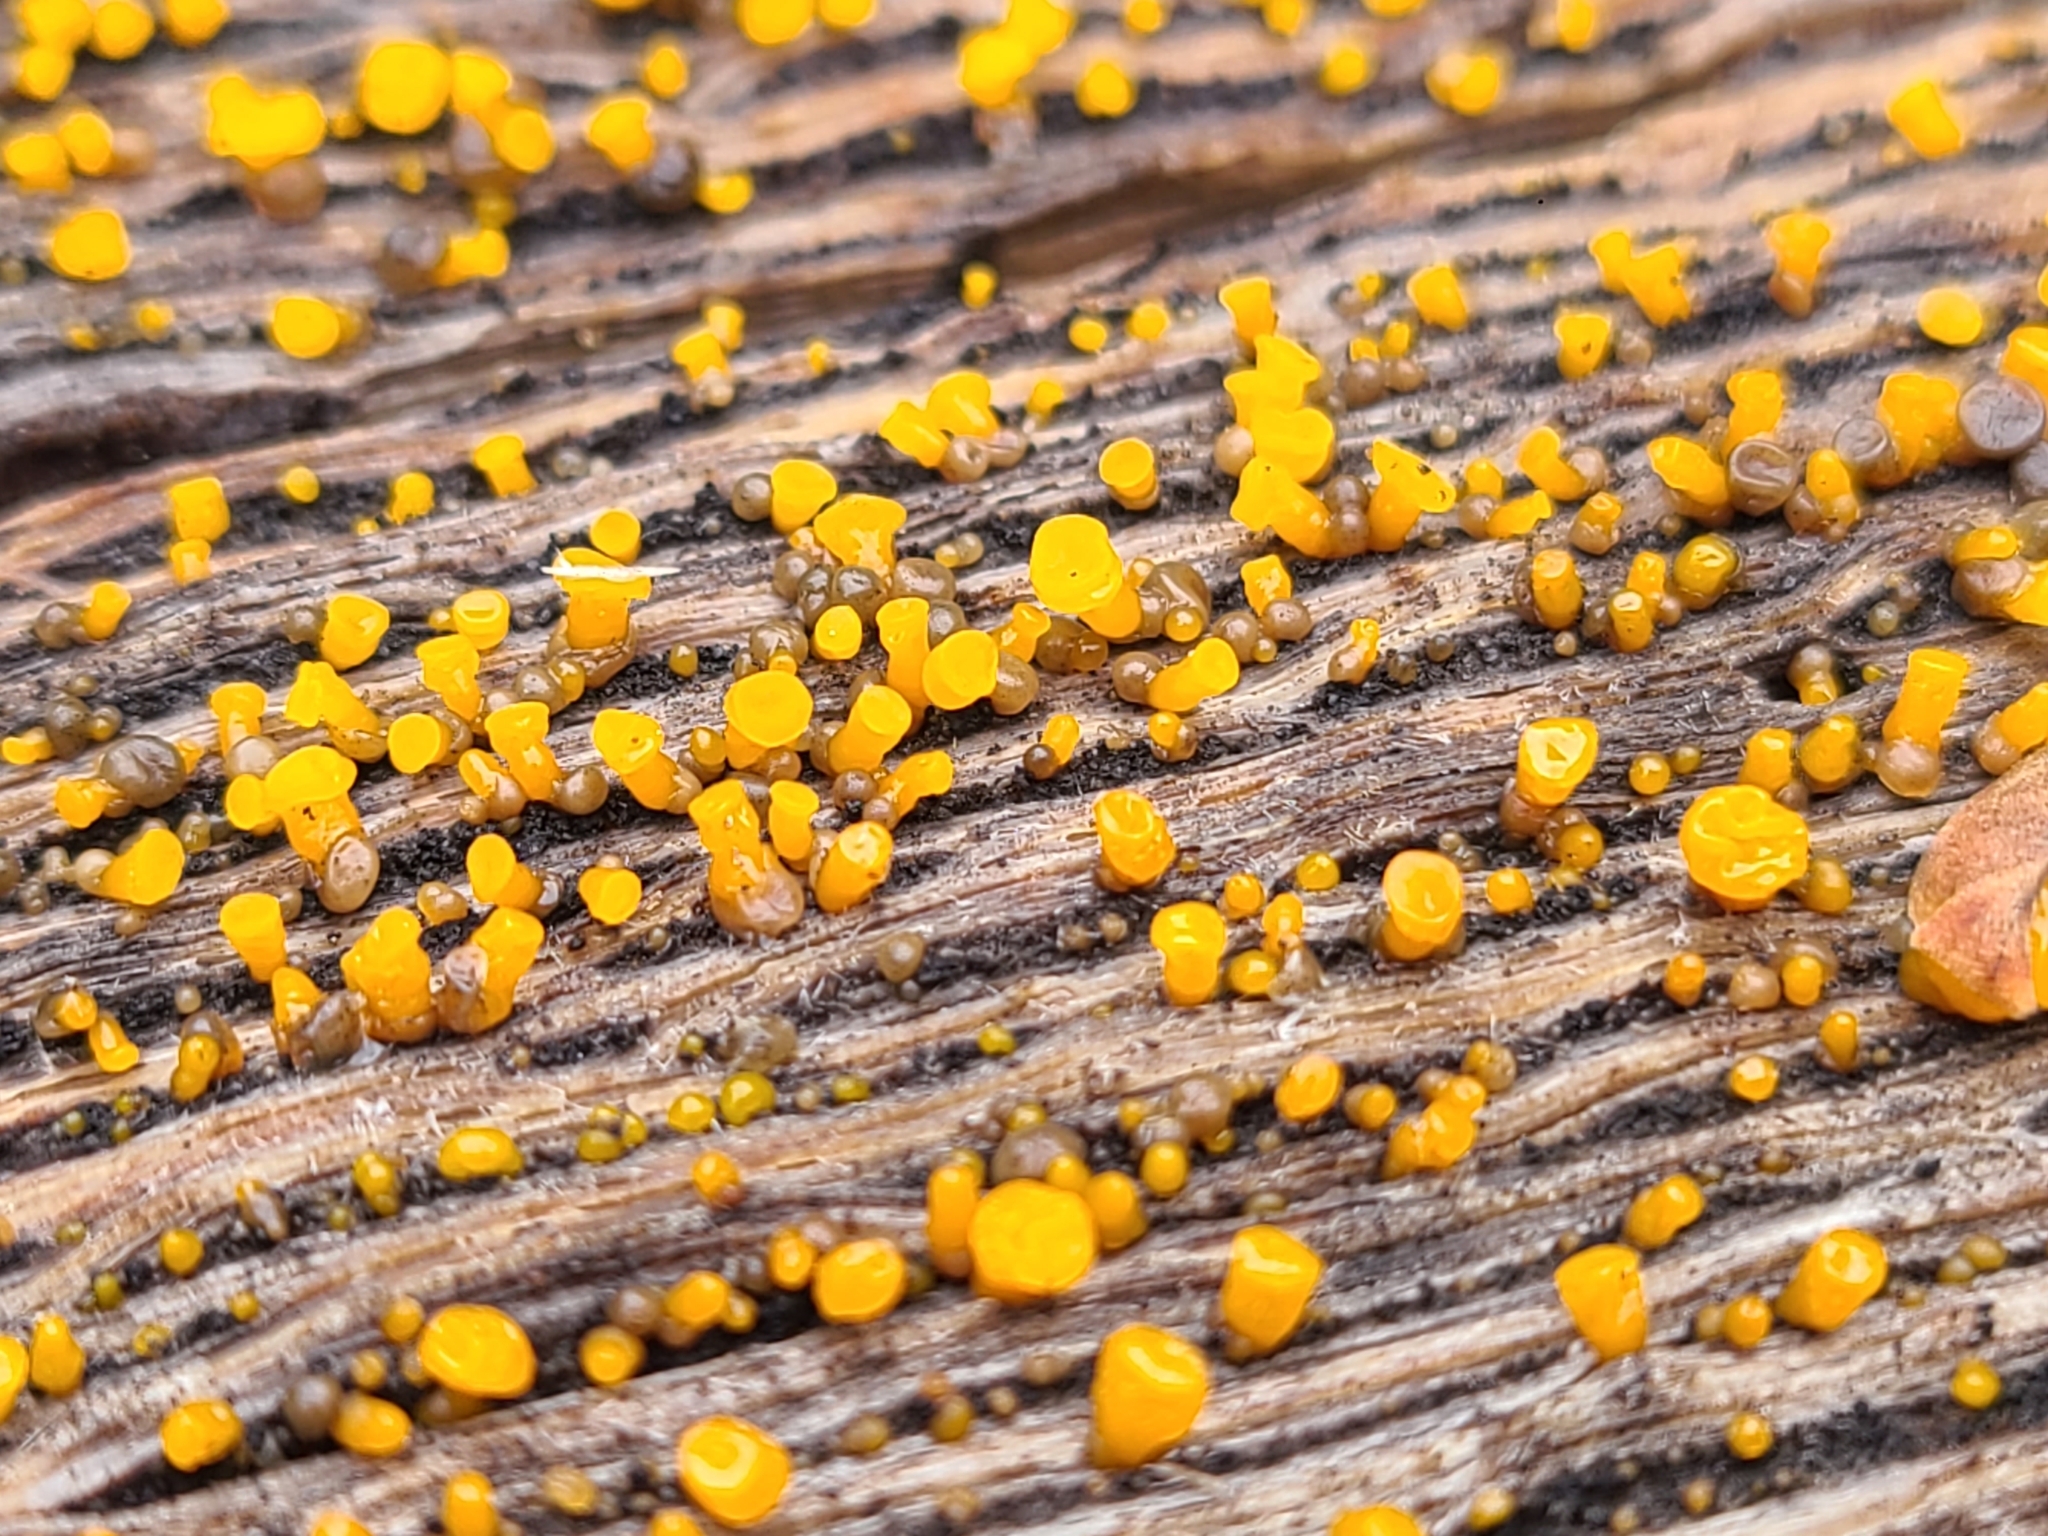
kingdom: Fungi
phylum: Basidiomycota
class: Dacrymycetes
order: Dacrymycetales
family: Dacrymycetaceae
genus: Dacrymyces
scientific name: Dacrymyces capitatus
